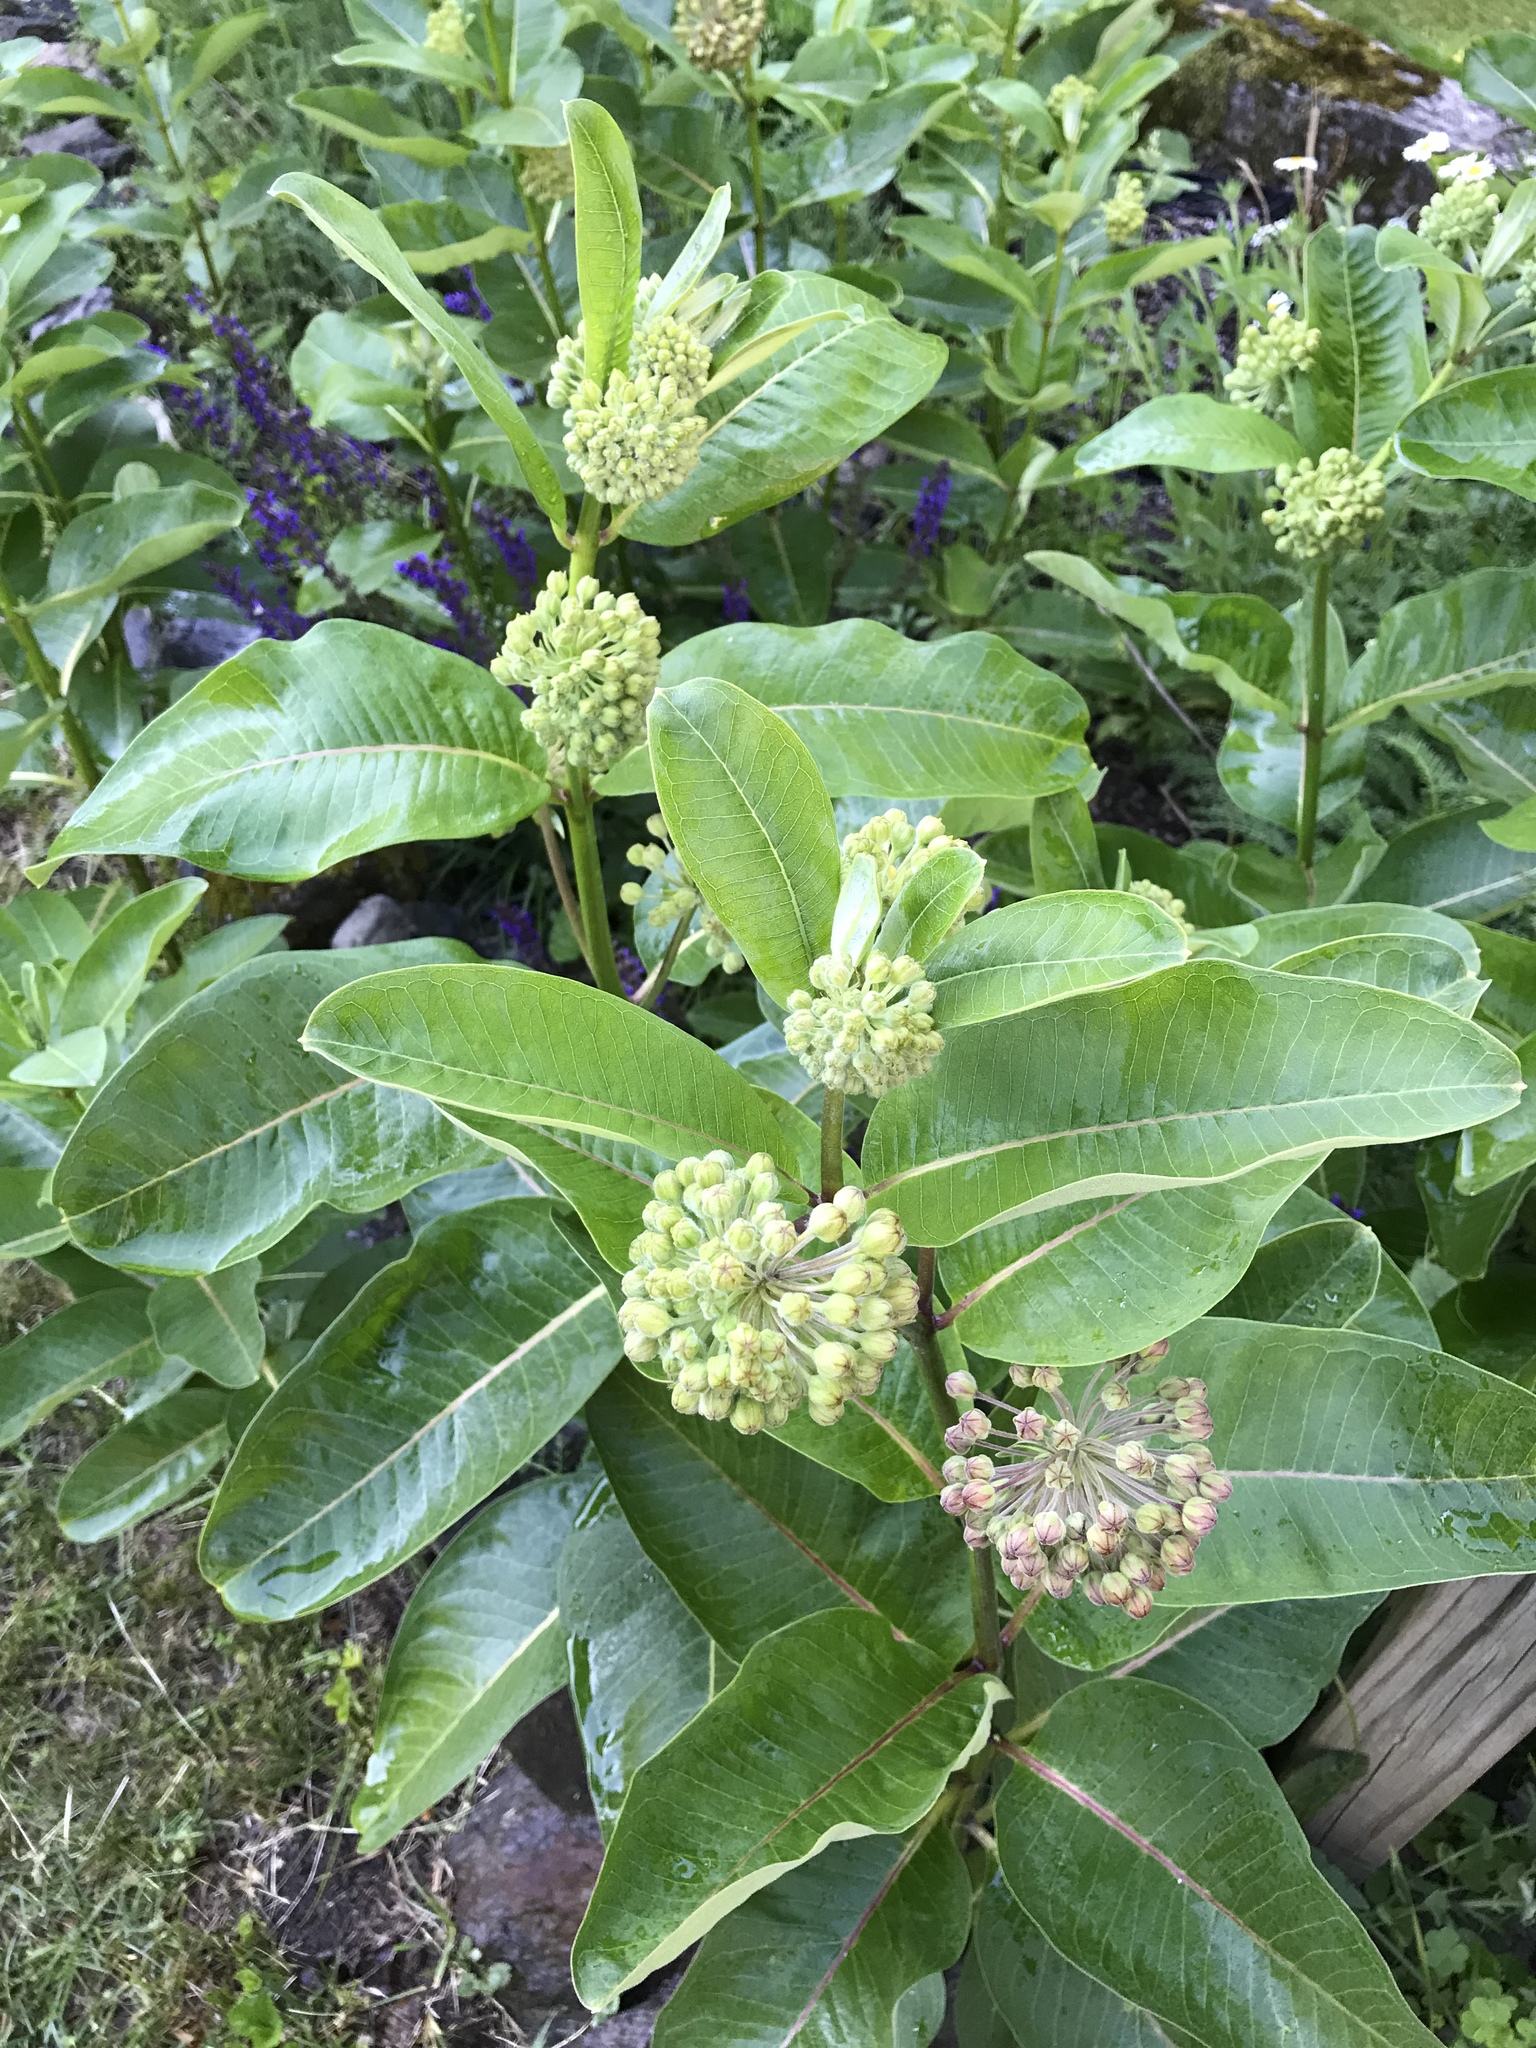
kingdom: Plantae
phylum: Tracheophyta
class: Magnoliopsida
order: Gentianales
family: Apocynaceae
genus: Asclepias
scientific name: Asclepias syriaca
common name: Common milkweed
